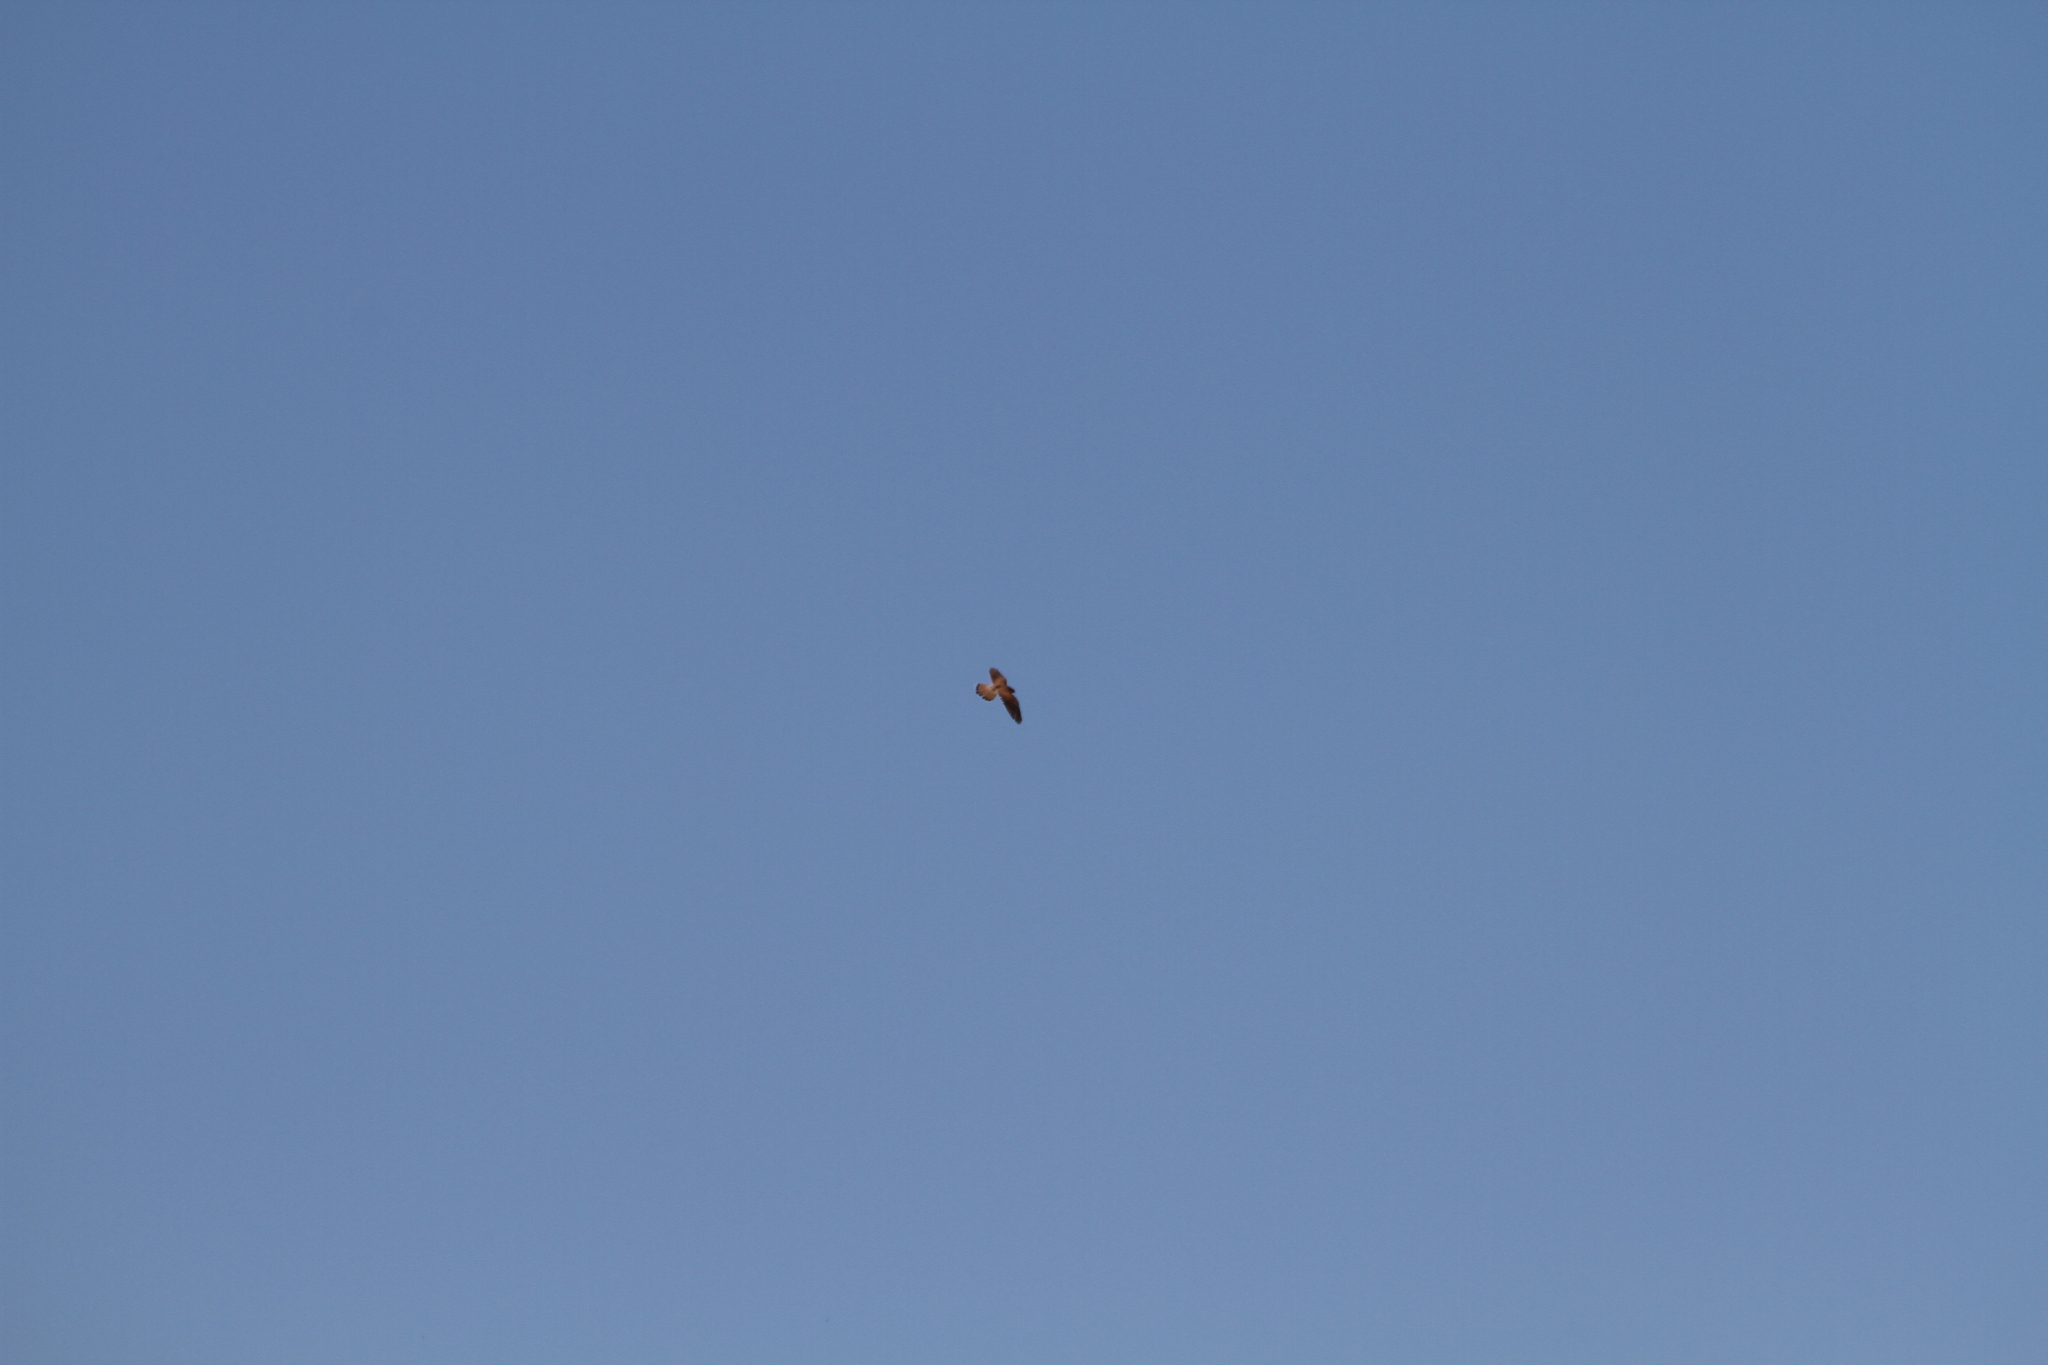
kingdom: Animalia
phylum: Chordata
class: Aves
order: Falconiformes
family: Falconidae
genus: Falco
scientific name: Falco tinnunculus
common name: Common kestrel
